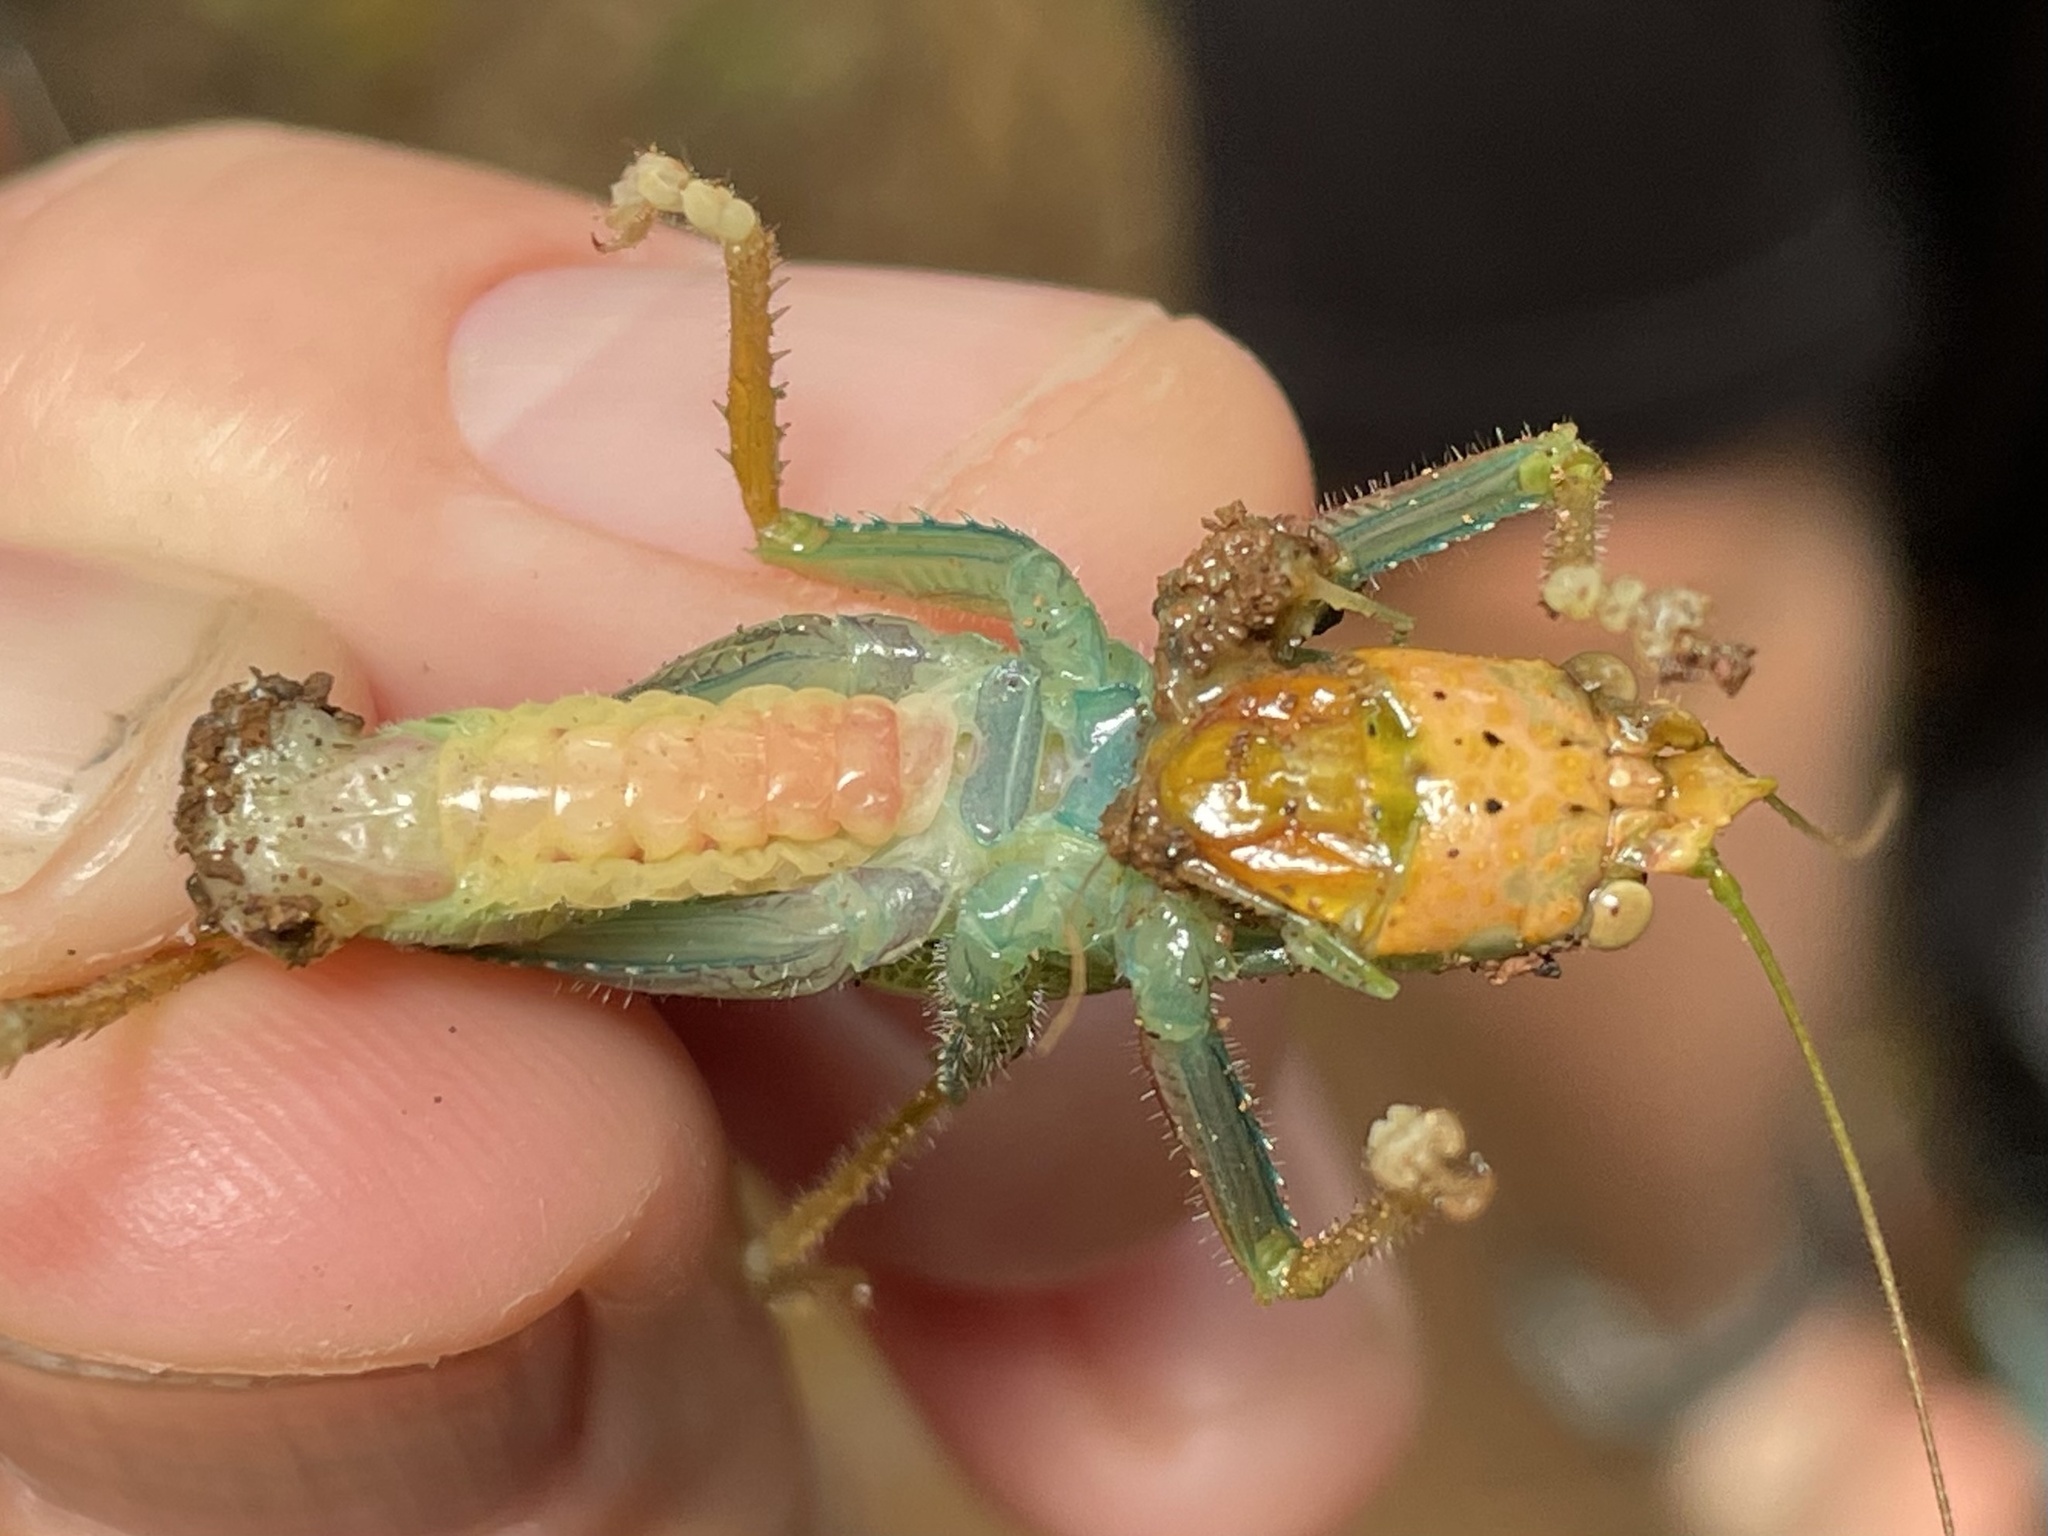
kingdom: Animalia
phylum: Arthropoda
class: Insecta
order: Orthoptera
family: Tettigoniidae
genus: Copiphora
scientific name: Copiphora ottei
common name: Otte's spear bearer
